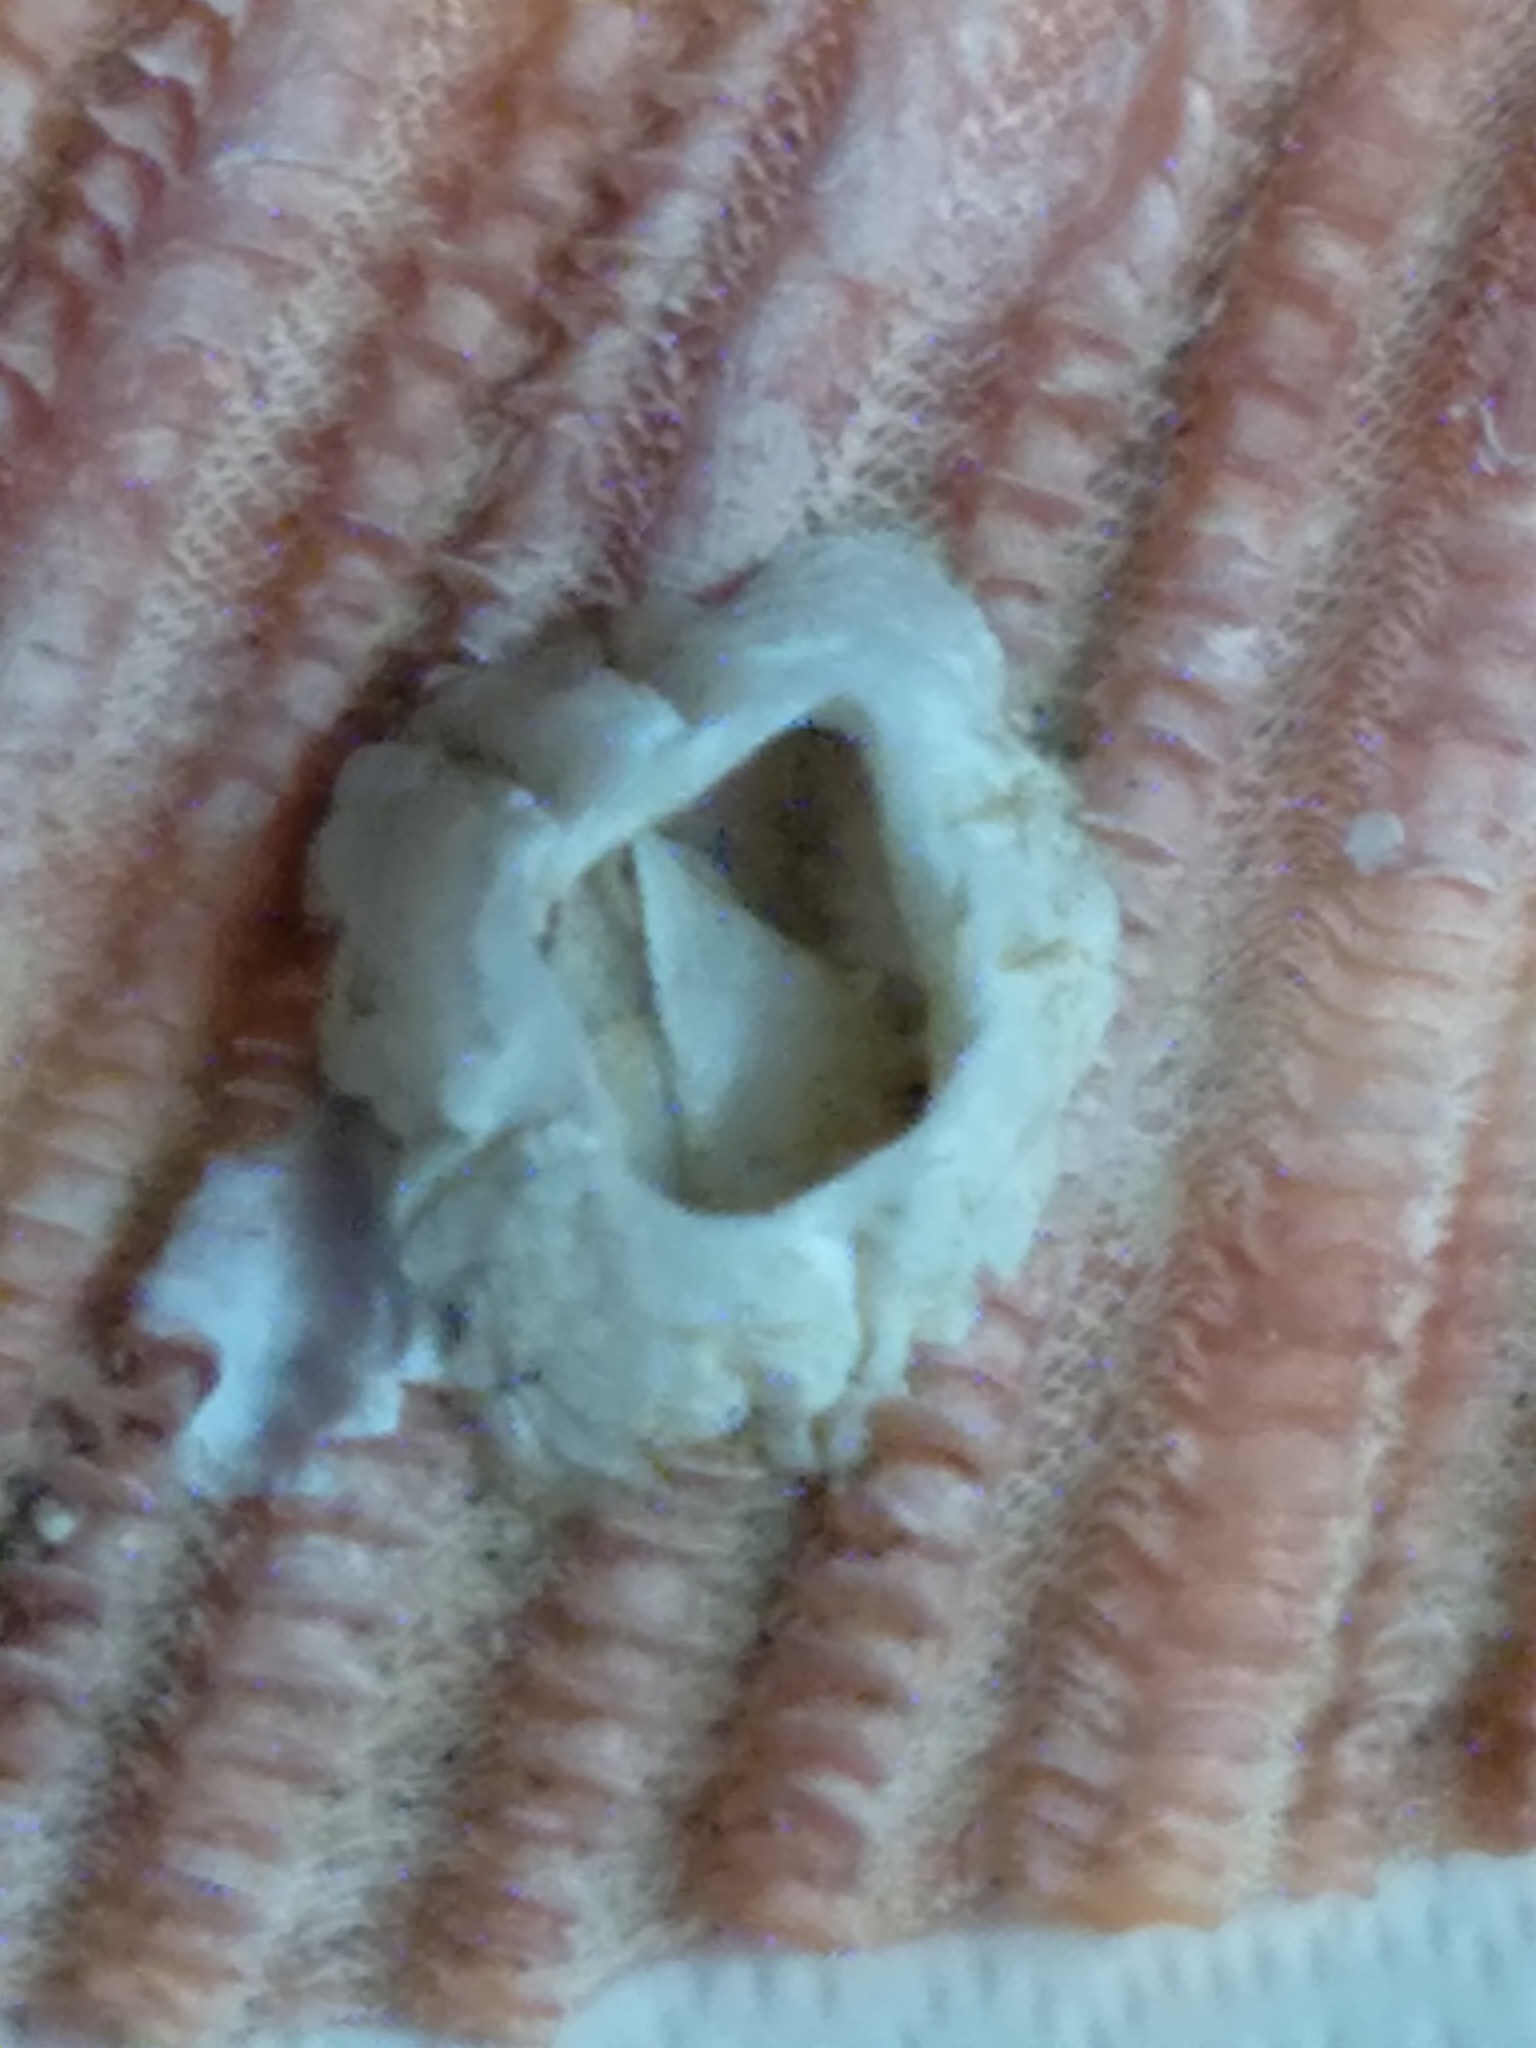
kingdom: Animalia
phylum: Arthropoda
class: Maxillopoda
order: Sessilia
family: Archaeobalanidae
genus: Semibalanus
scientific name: Semibalanus balanoides
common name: Acorn barnacle
